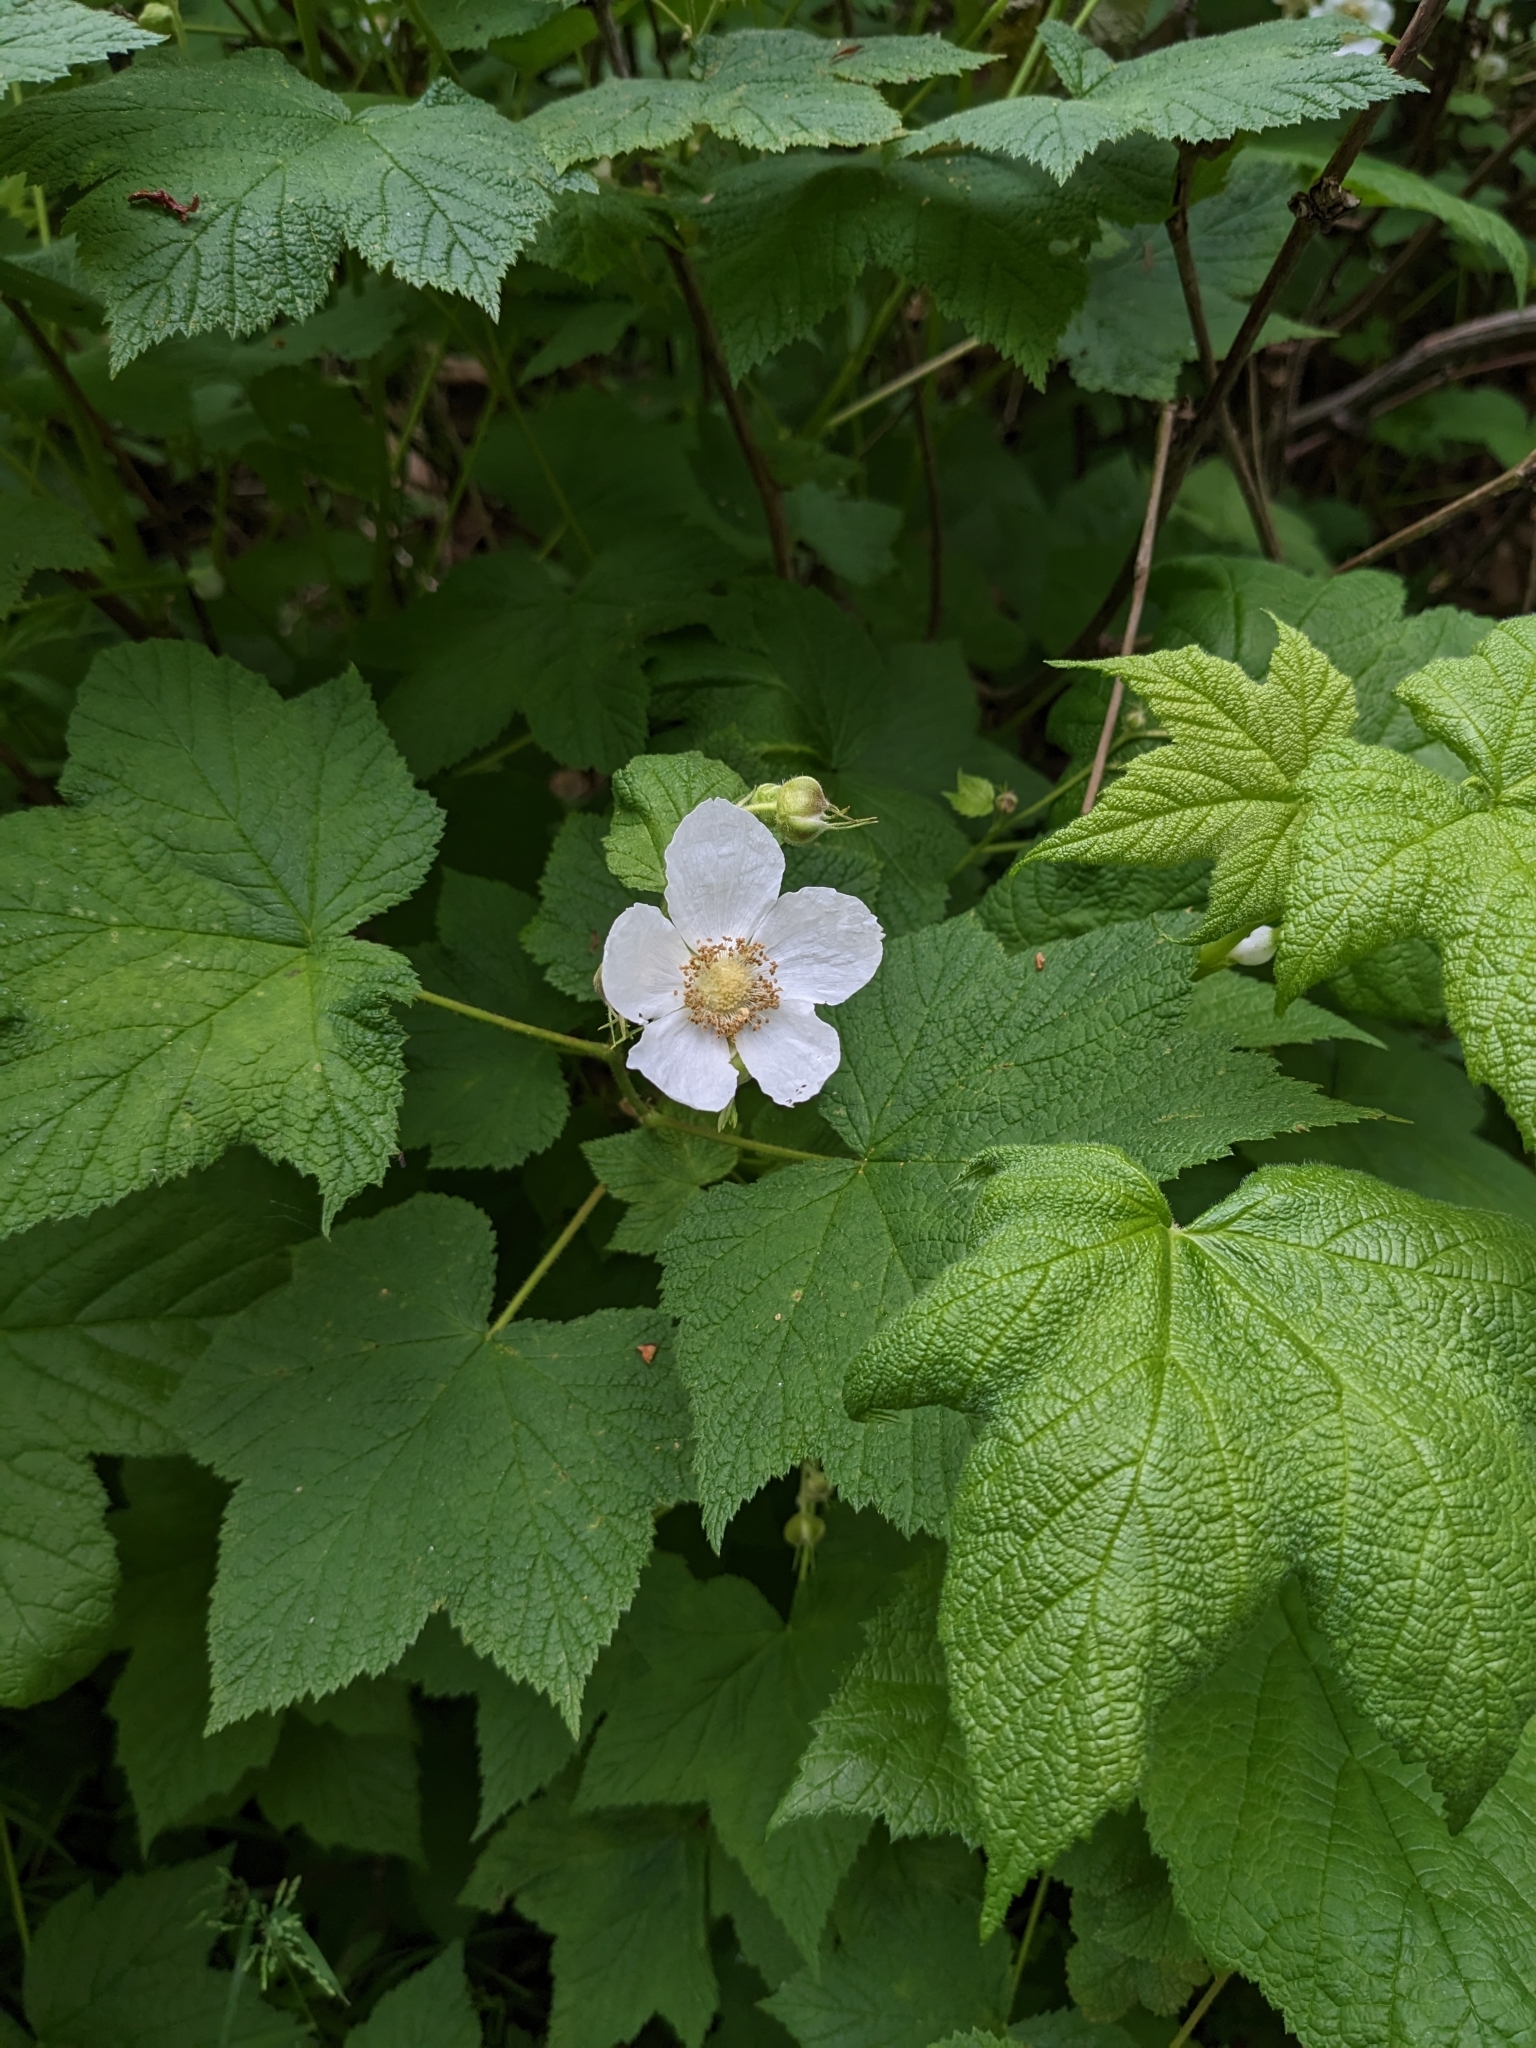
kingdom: Plantae
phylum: Tracheophyta
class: Magnoliopsida
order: Rosales
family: Rosaceae
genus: Rubus
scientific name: Rubus parviflorus
